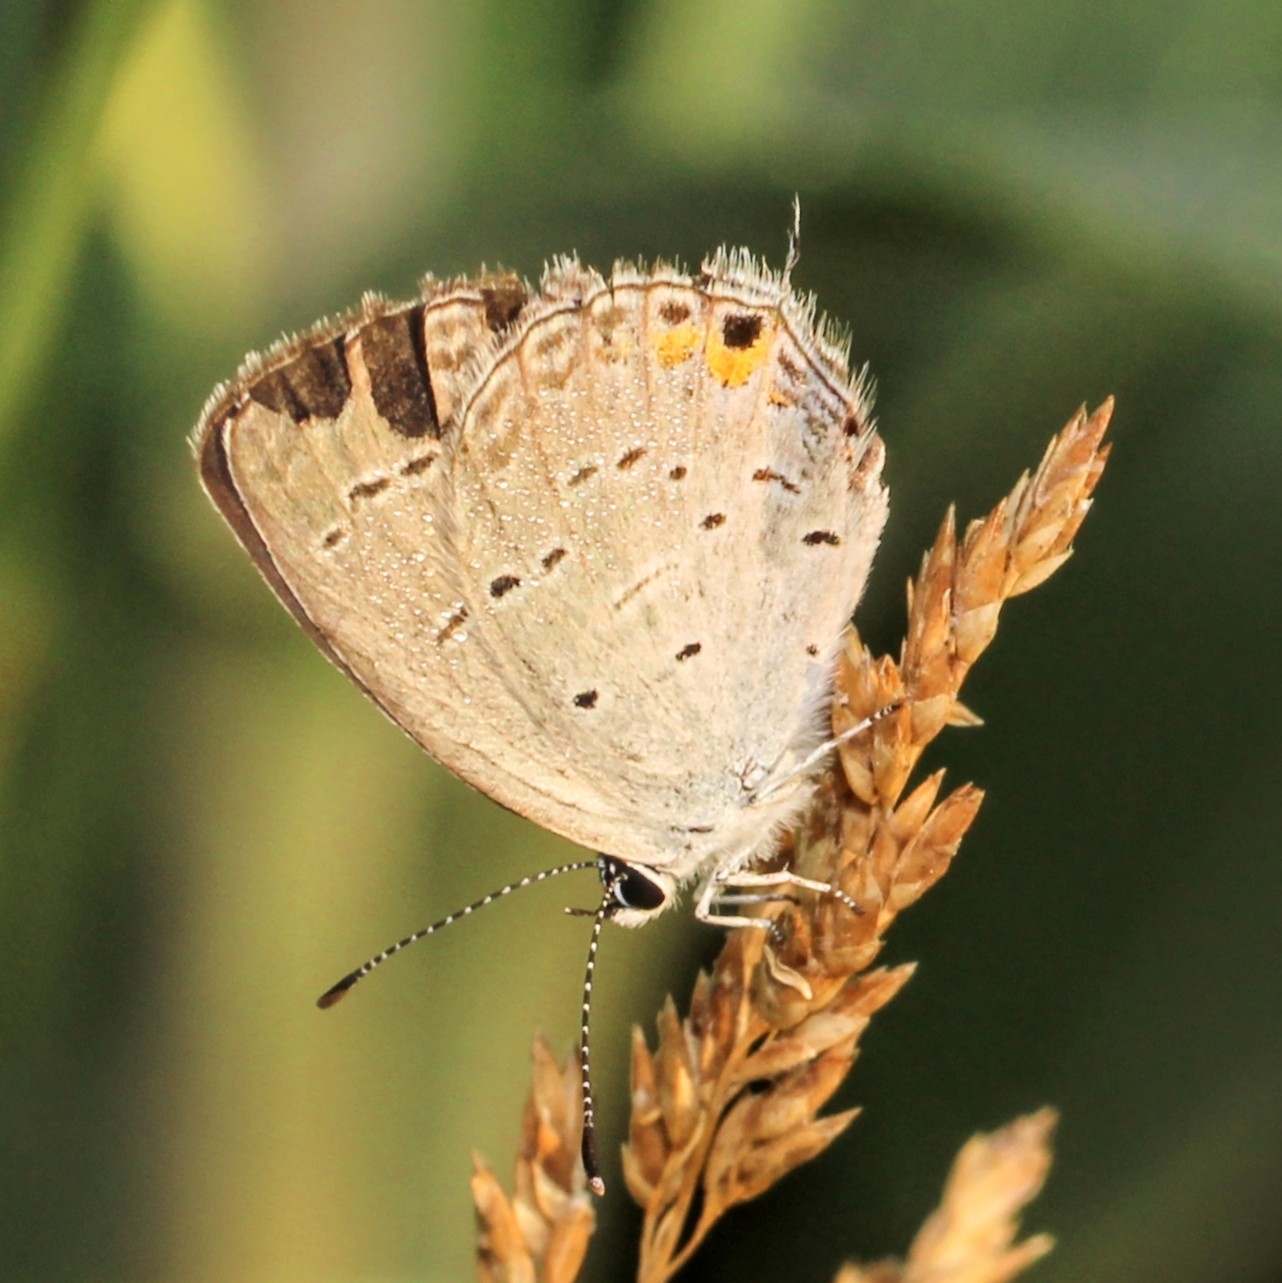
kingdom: Animalia
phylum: Arthropoda
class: Insecta
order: Lepidoptera
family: Lycaenidae
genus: Elkalyce
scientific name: Elkalyce comyntas
